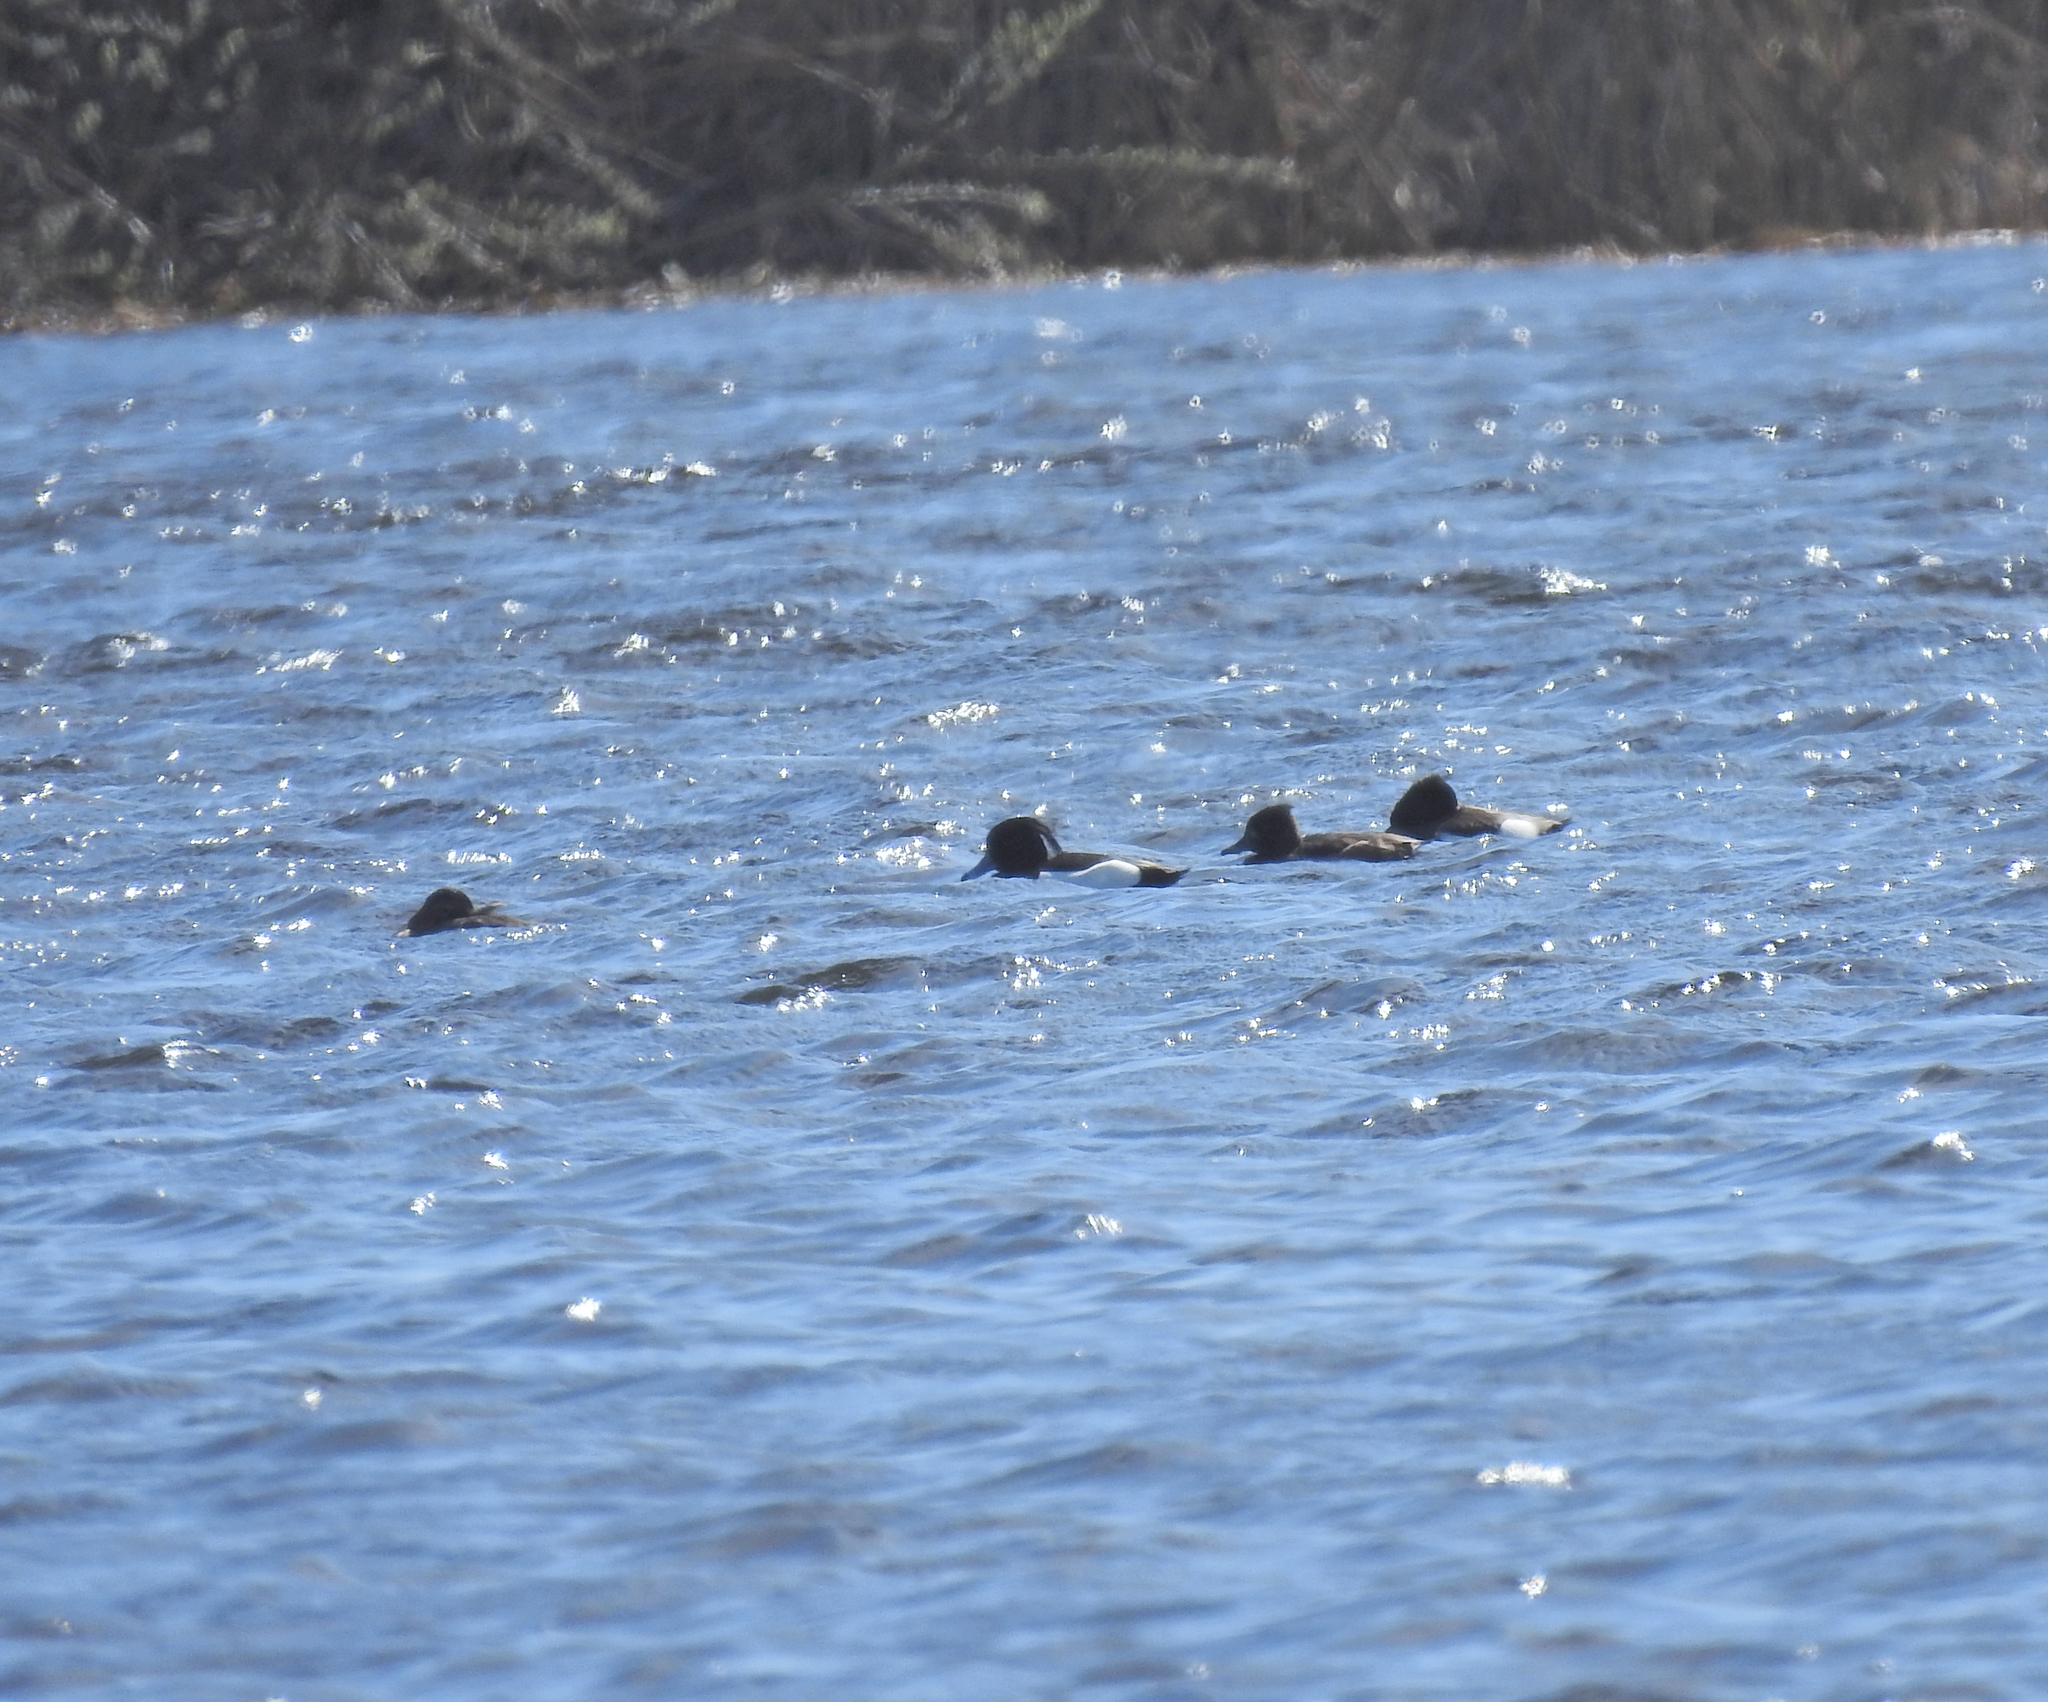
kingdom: Animalia
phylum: Chordata
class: Aves
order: Anseriformes
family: Anatidae
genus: Aythya
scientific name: Aythya fuligula
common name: Tufted duck
